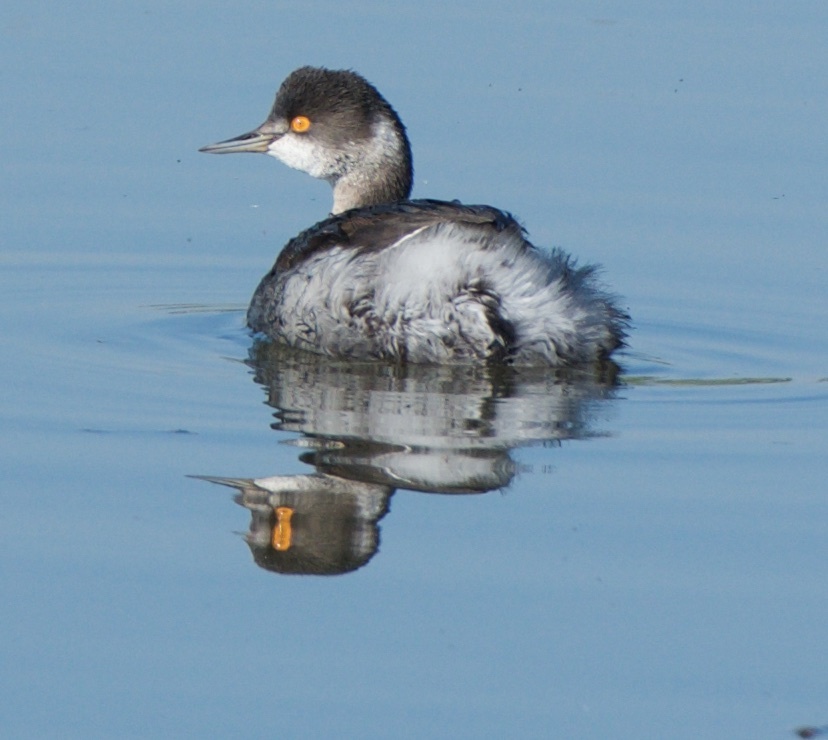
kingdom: Animalia
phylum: Chordata
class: Aves
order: Podicipediformes
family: Podicipedidae
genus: Podiceps
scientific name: Podiceps nigricollis
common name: Black-necked grebe
